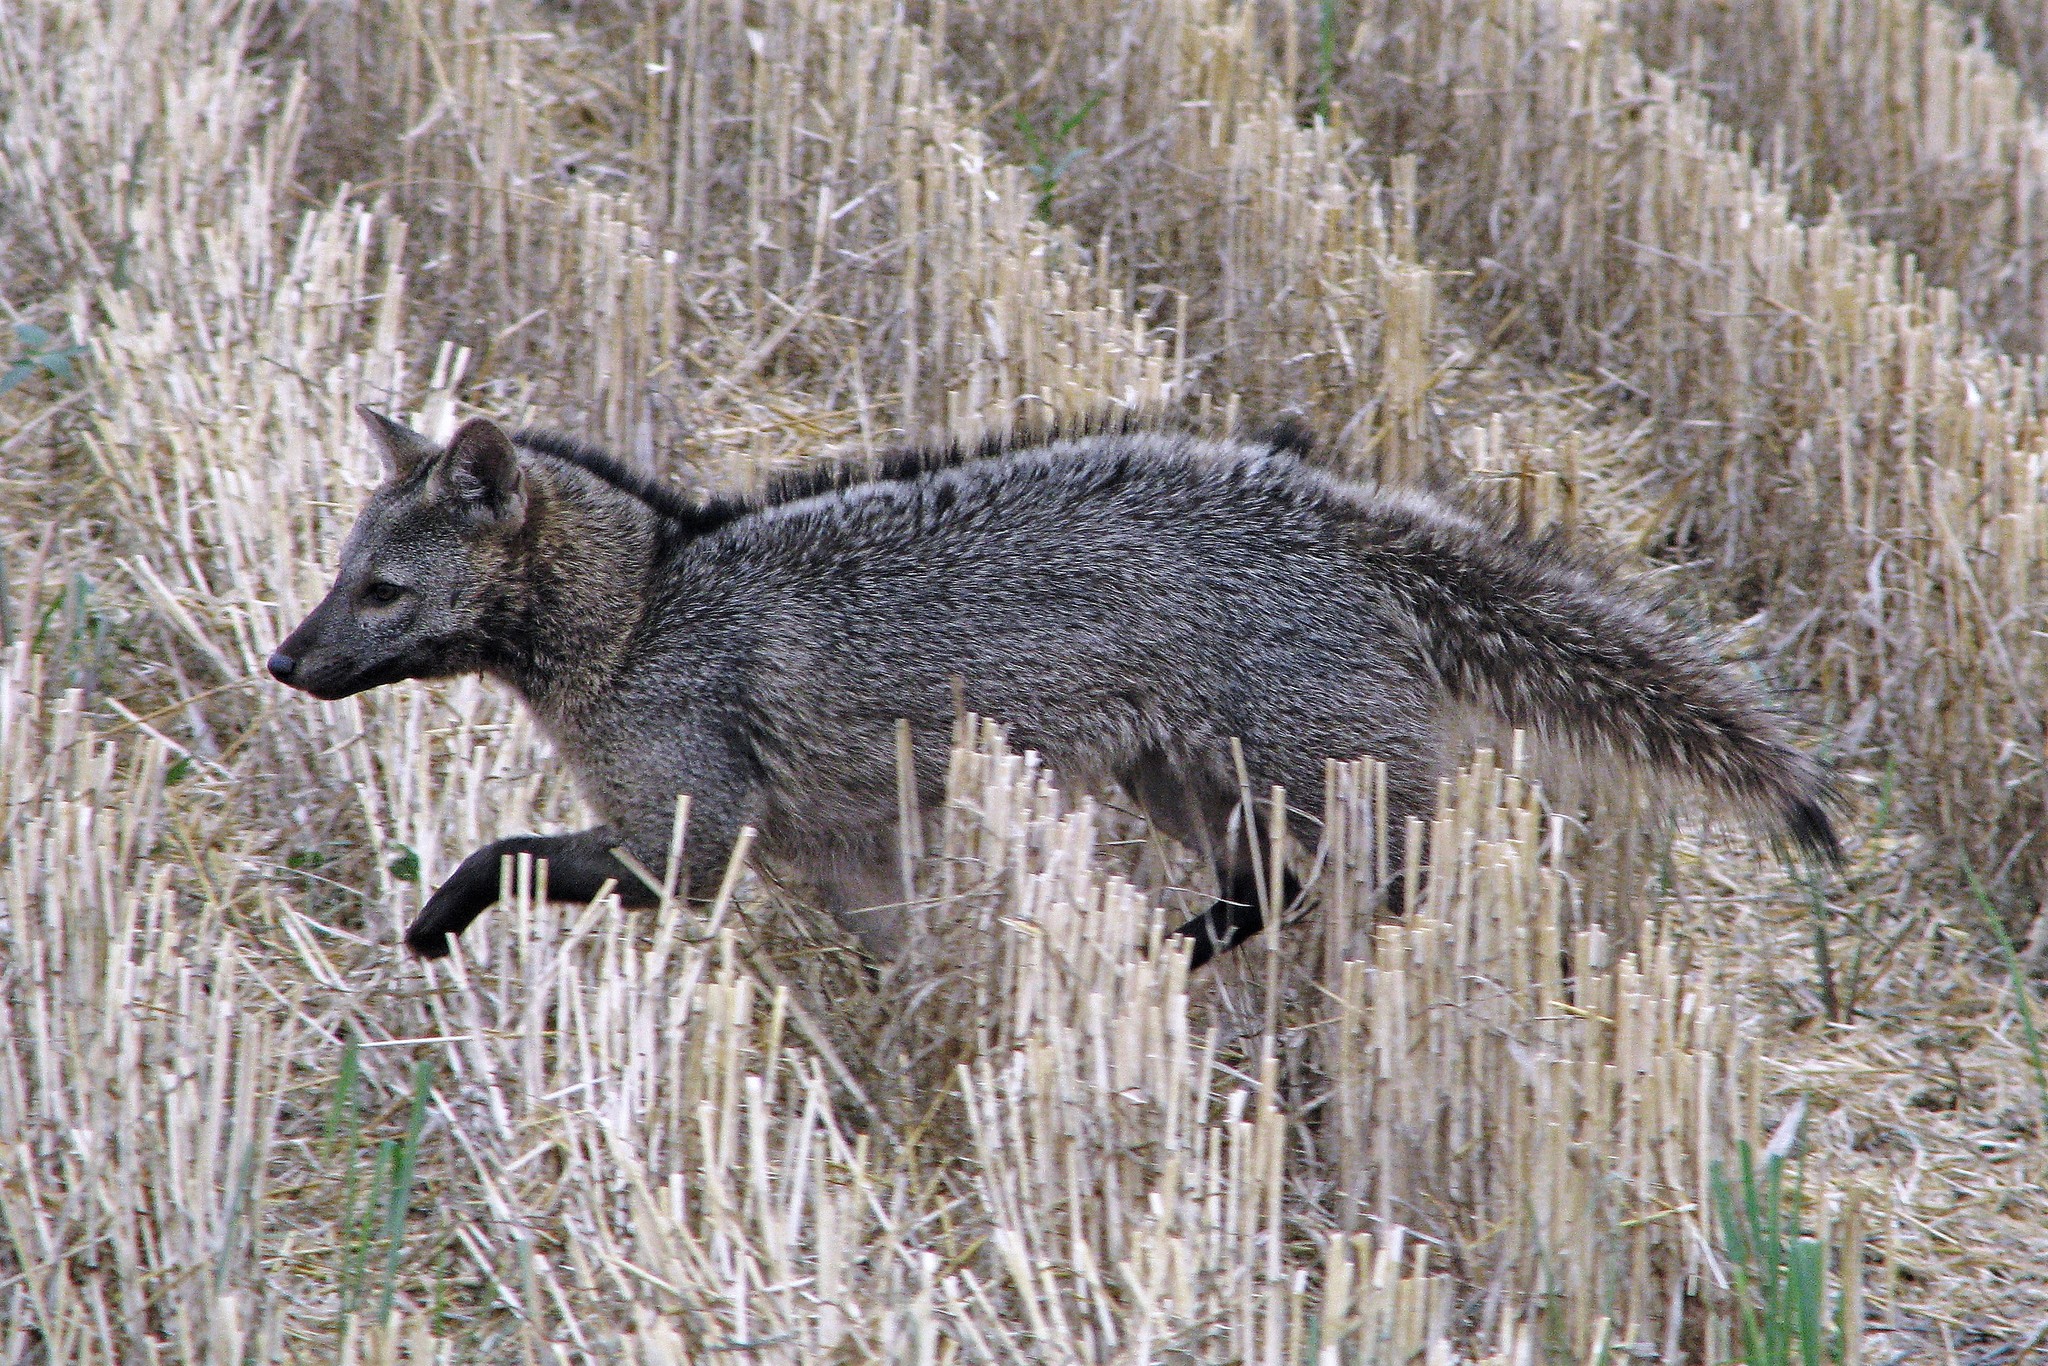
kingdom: Animalia
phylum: Chordata
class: Mammalia
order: Carnivora
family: Canidae
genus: Cerdocyon
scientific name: Cerdocyon thous
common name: Crab-eating fox
